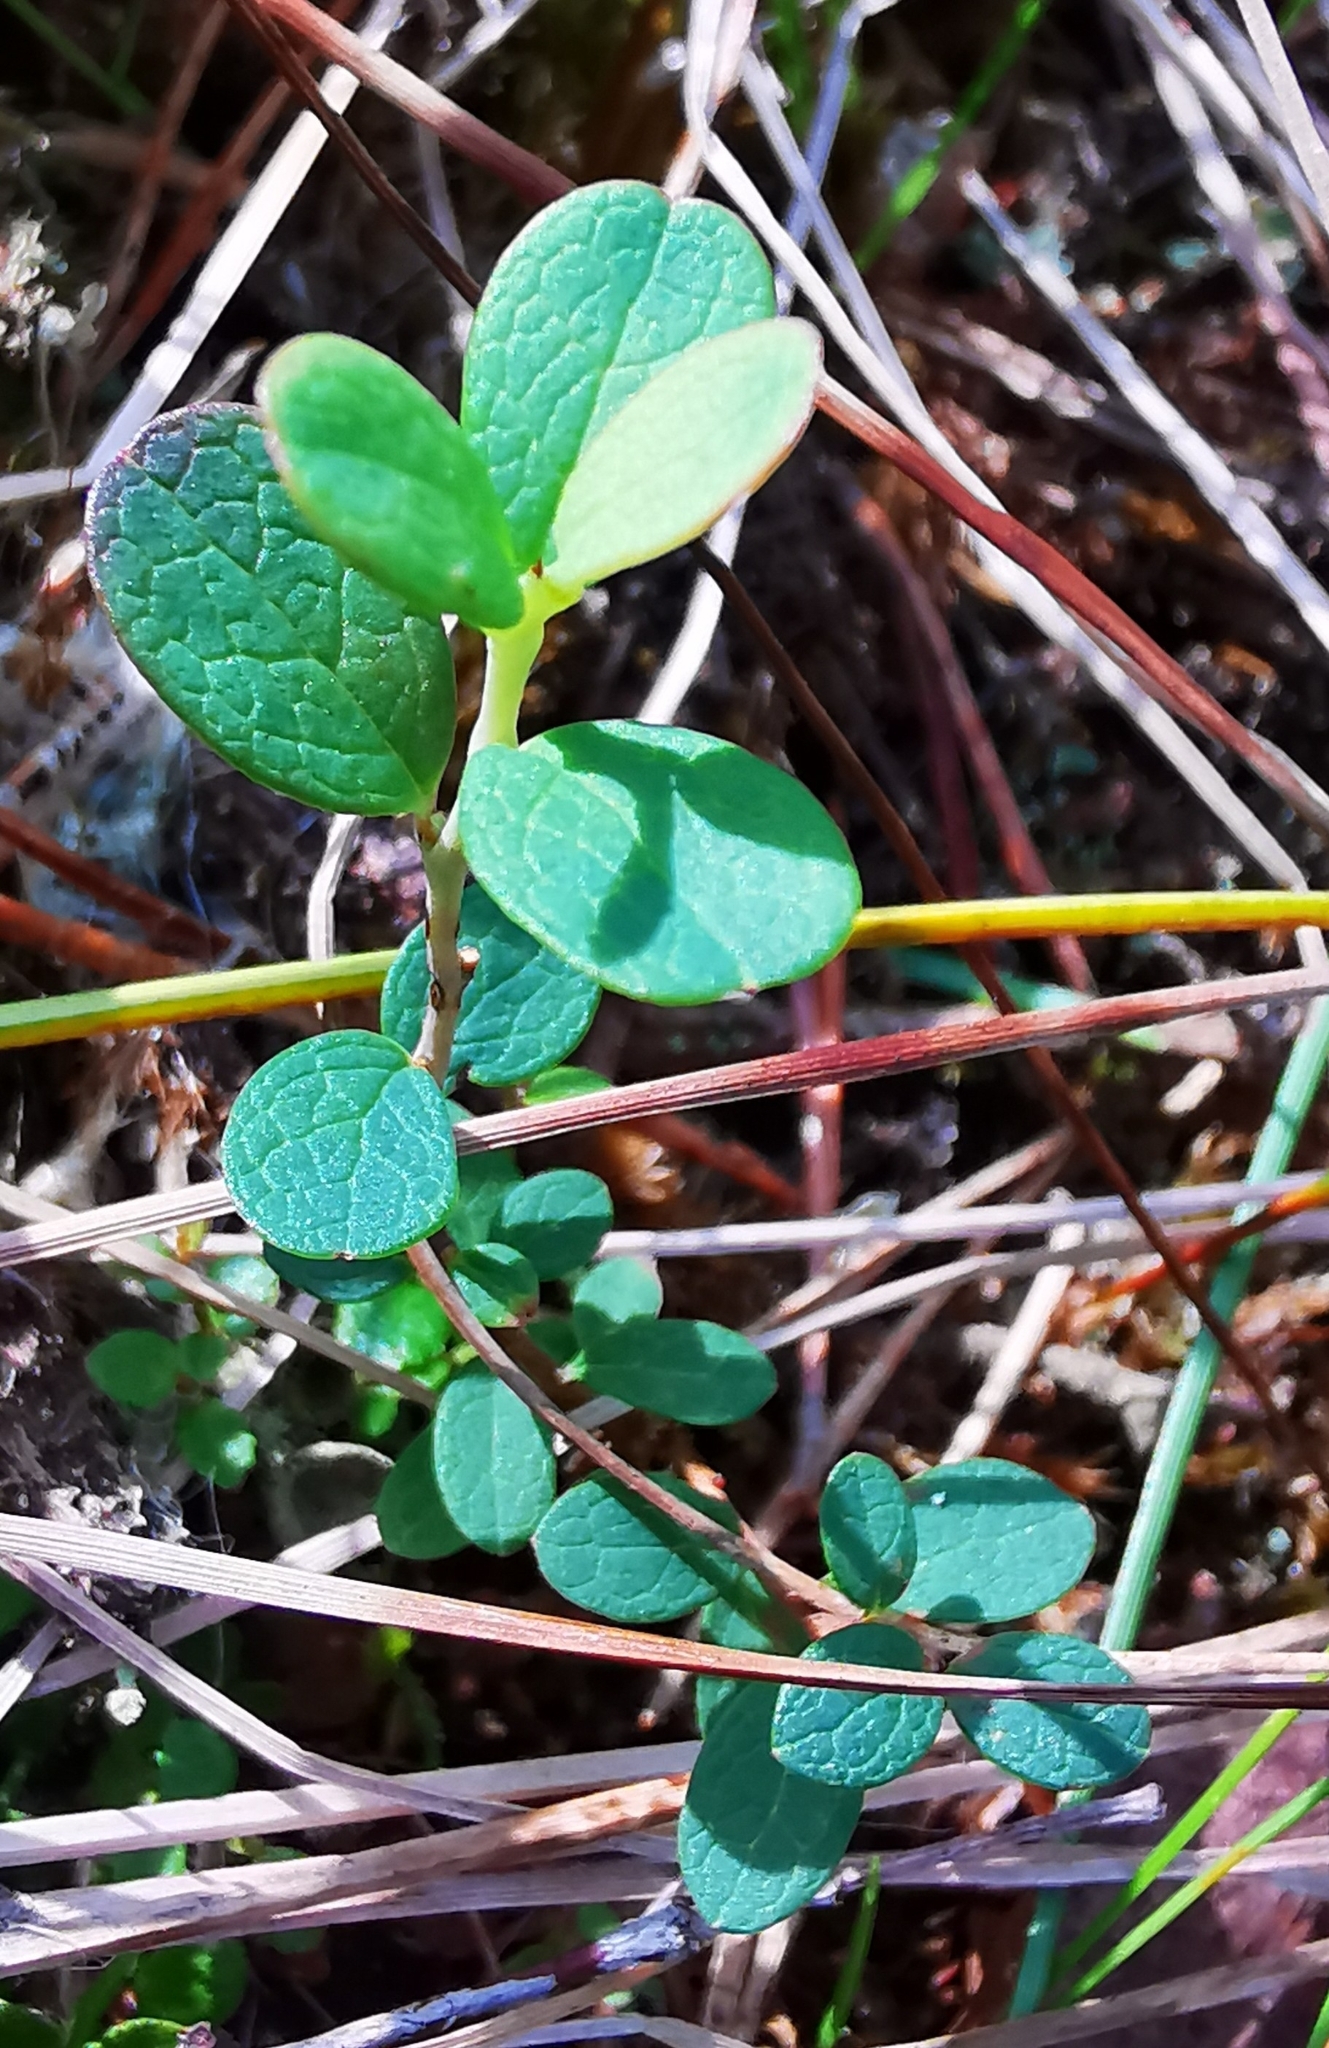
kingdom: Plantae
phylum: Tracheophyta
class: Magnoliopsida
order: Ericales
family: Ericaceae
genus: Vaccinium
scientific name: Vaccinium uliginosum
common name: Bog bilberry
